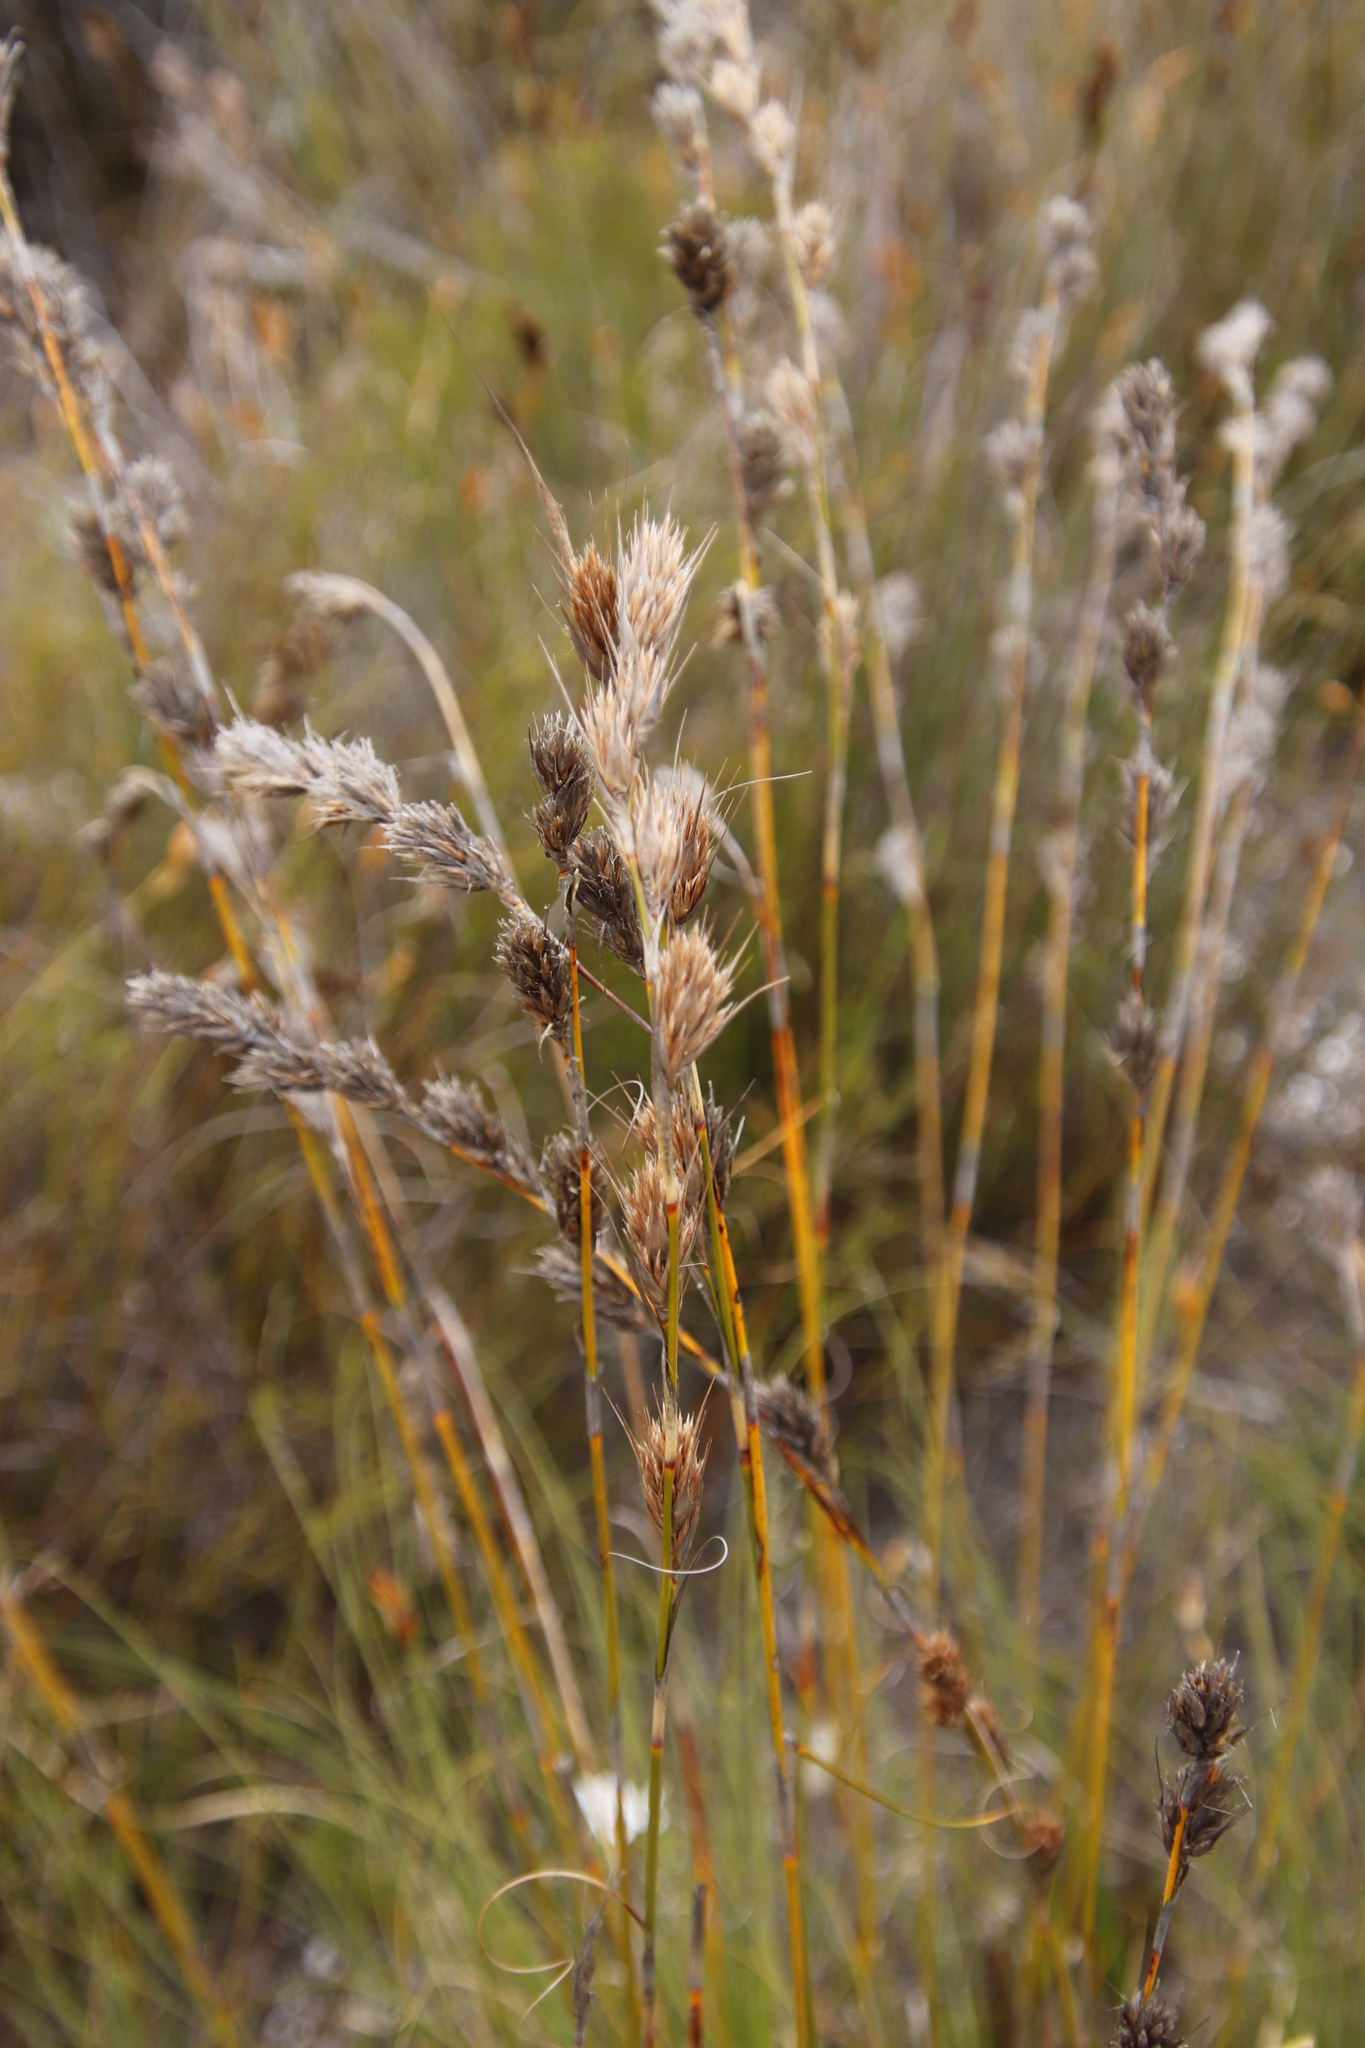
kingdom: Plantae
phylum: Tracheophyta
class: Liliopsida
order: Poales
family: Cyperaceae
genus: Tetraria
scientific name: Tetraria bromoides
